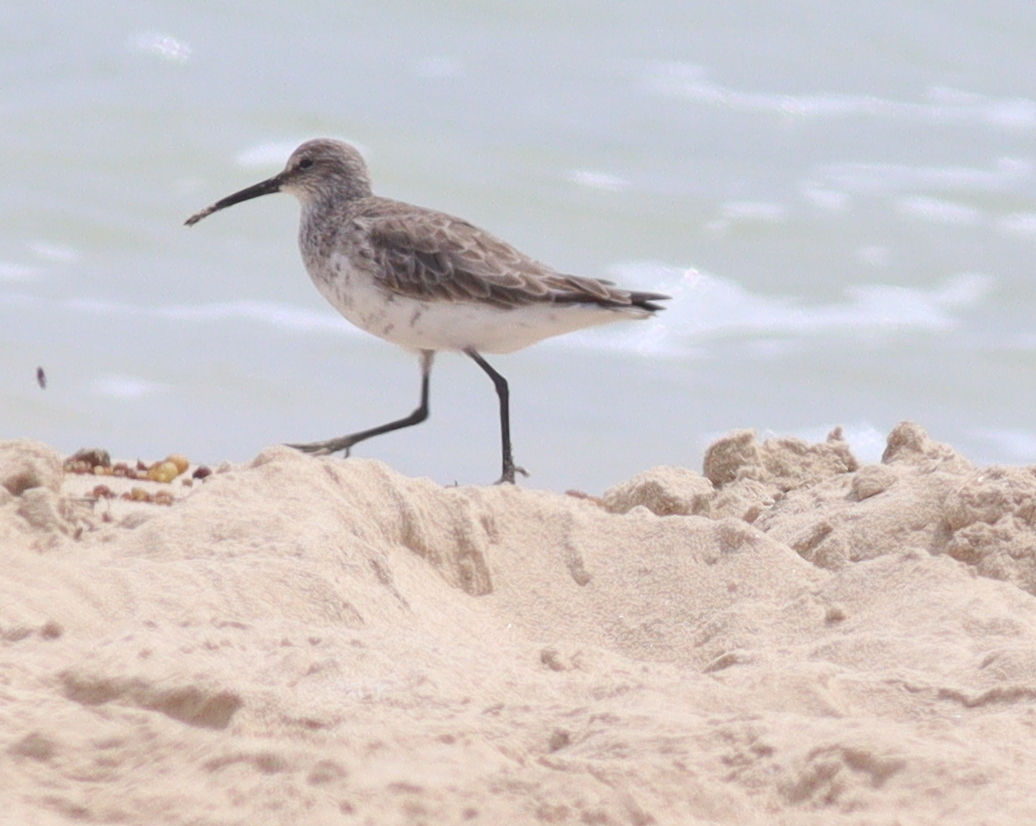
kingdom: Animalia
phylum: Chordata
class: Aves
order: Charadriiformes
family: Scolopacidae
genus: Calidris
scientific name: Calidris ferruginea
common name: Curlew sandpiper
